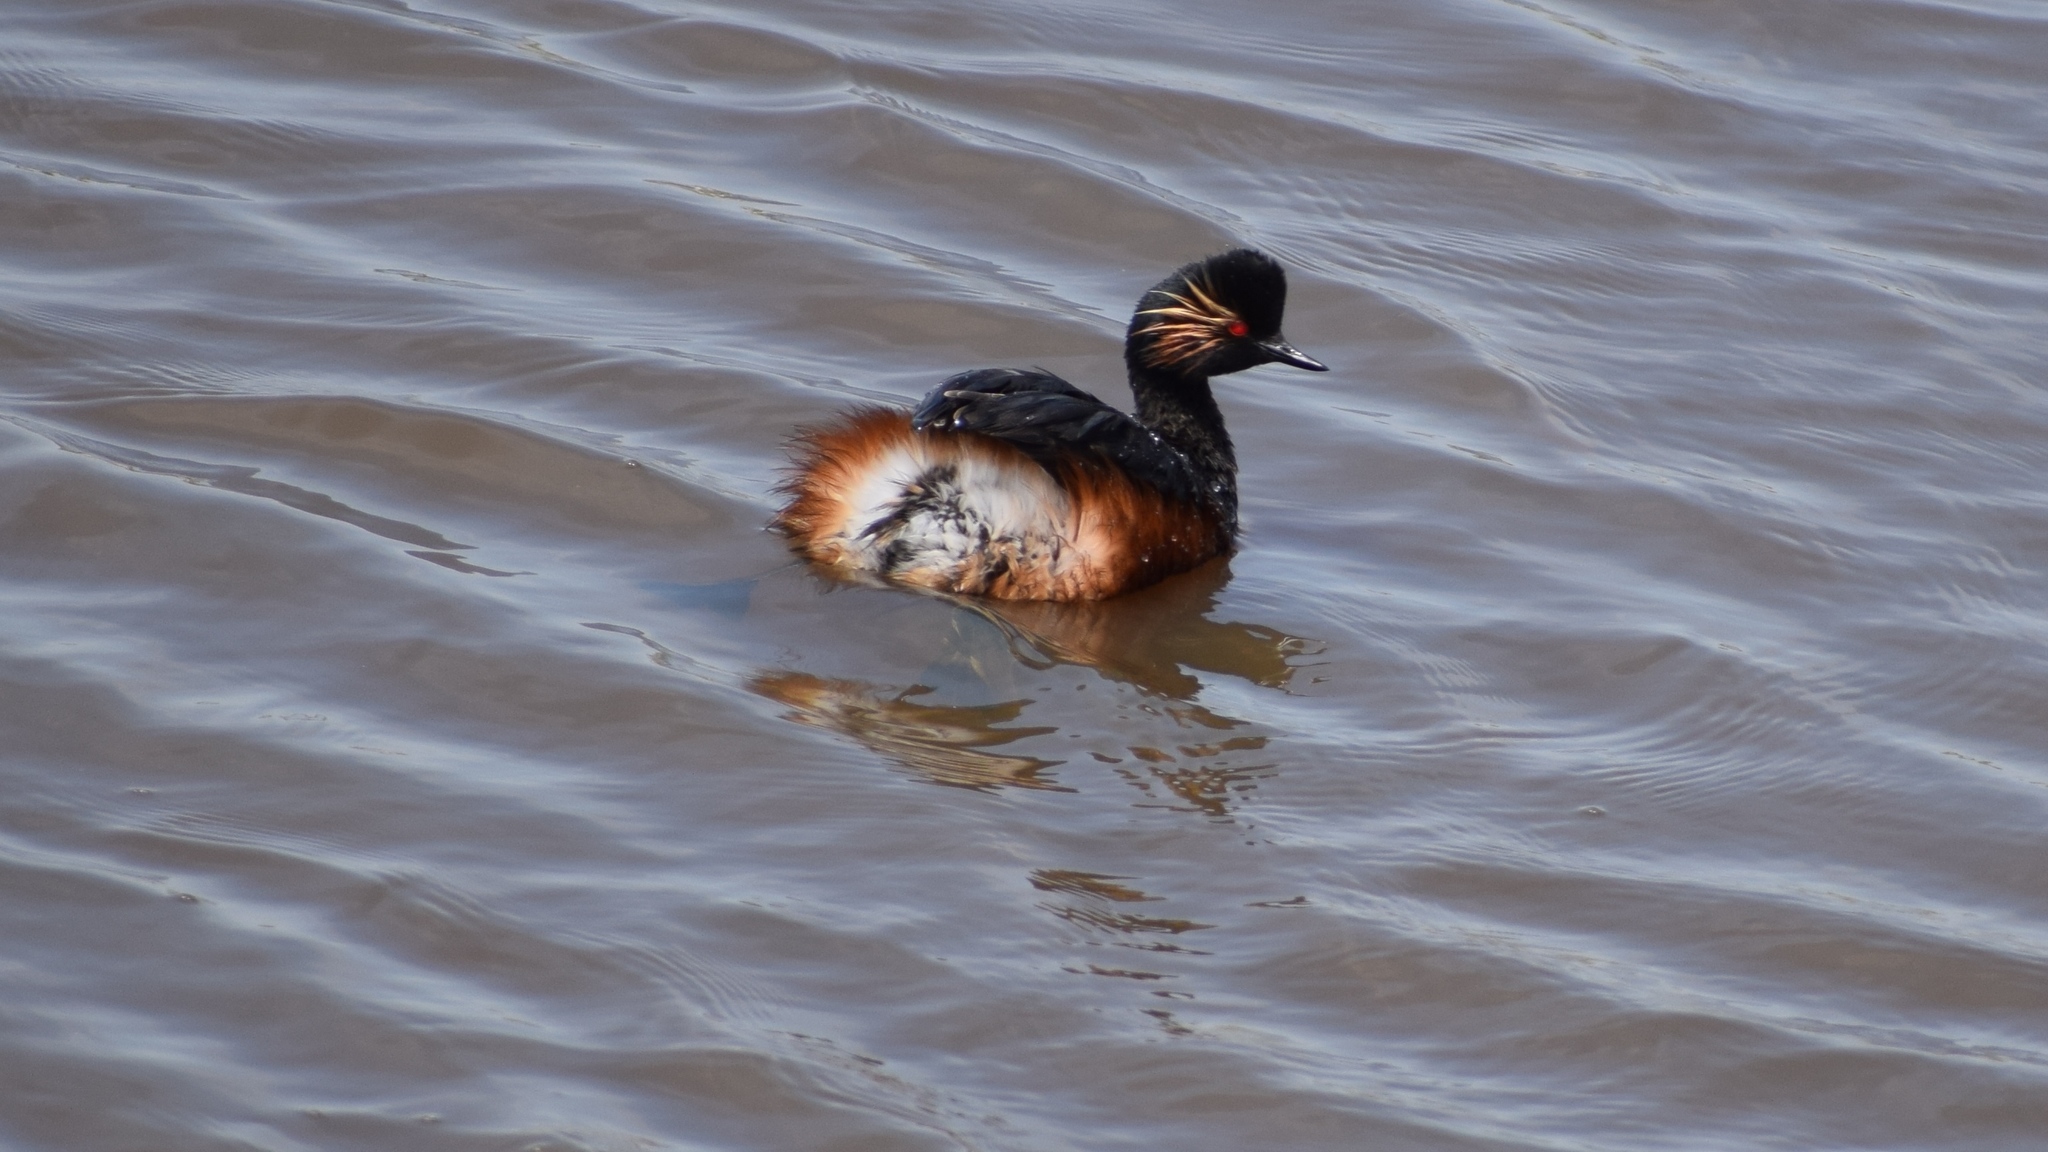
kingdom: Animalia
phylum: Chordata
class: Aves
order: Podicipediformes
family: Podicipedidae
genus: Podiceps
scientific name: Podiceps nigricollis
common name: Black-necked grebe
